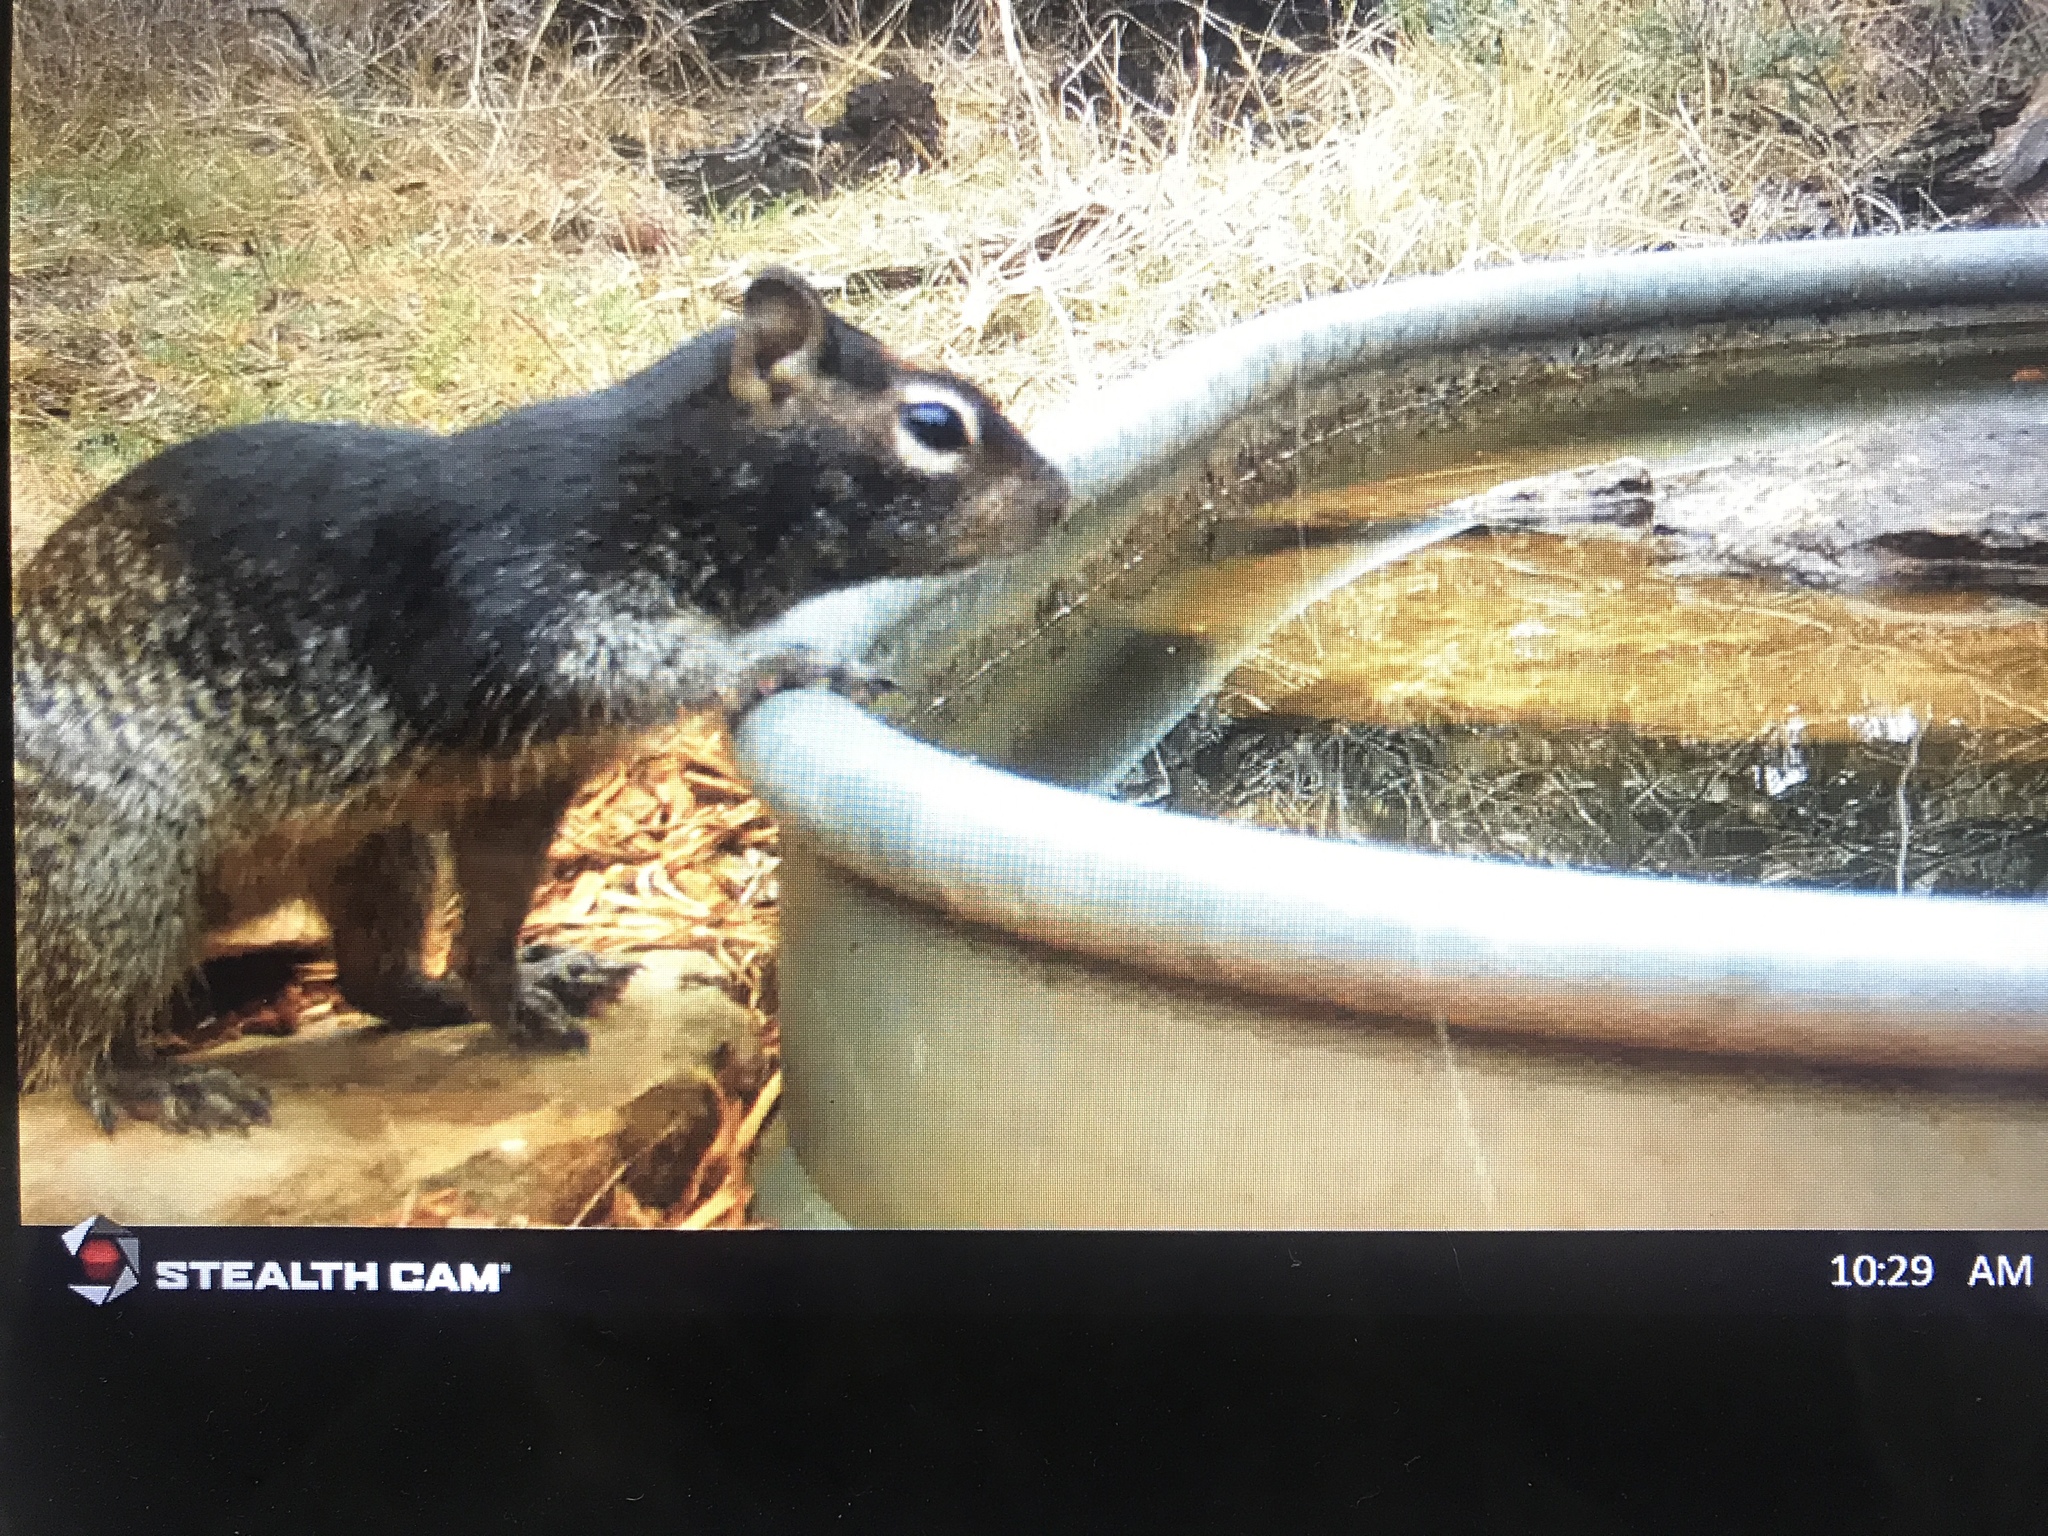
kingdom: Animalia
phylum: Chordata
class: Mammalia
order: Rodentia
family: Sciuridae
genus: Otospermophilus
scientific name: Otospermophilus variegatus
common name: Rock squirrel
